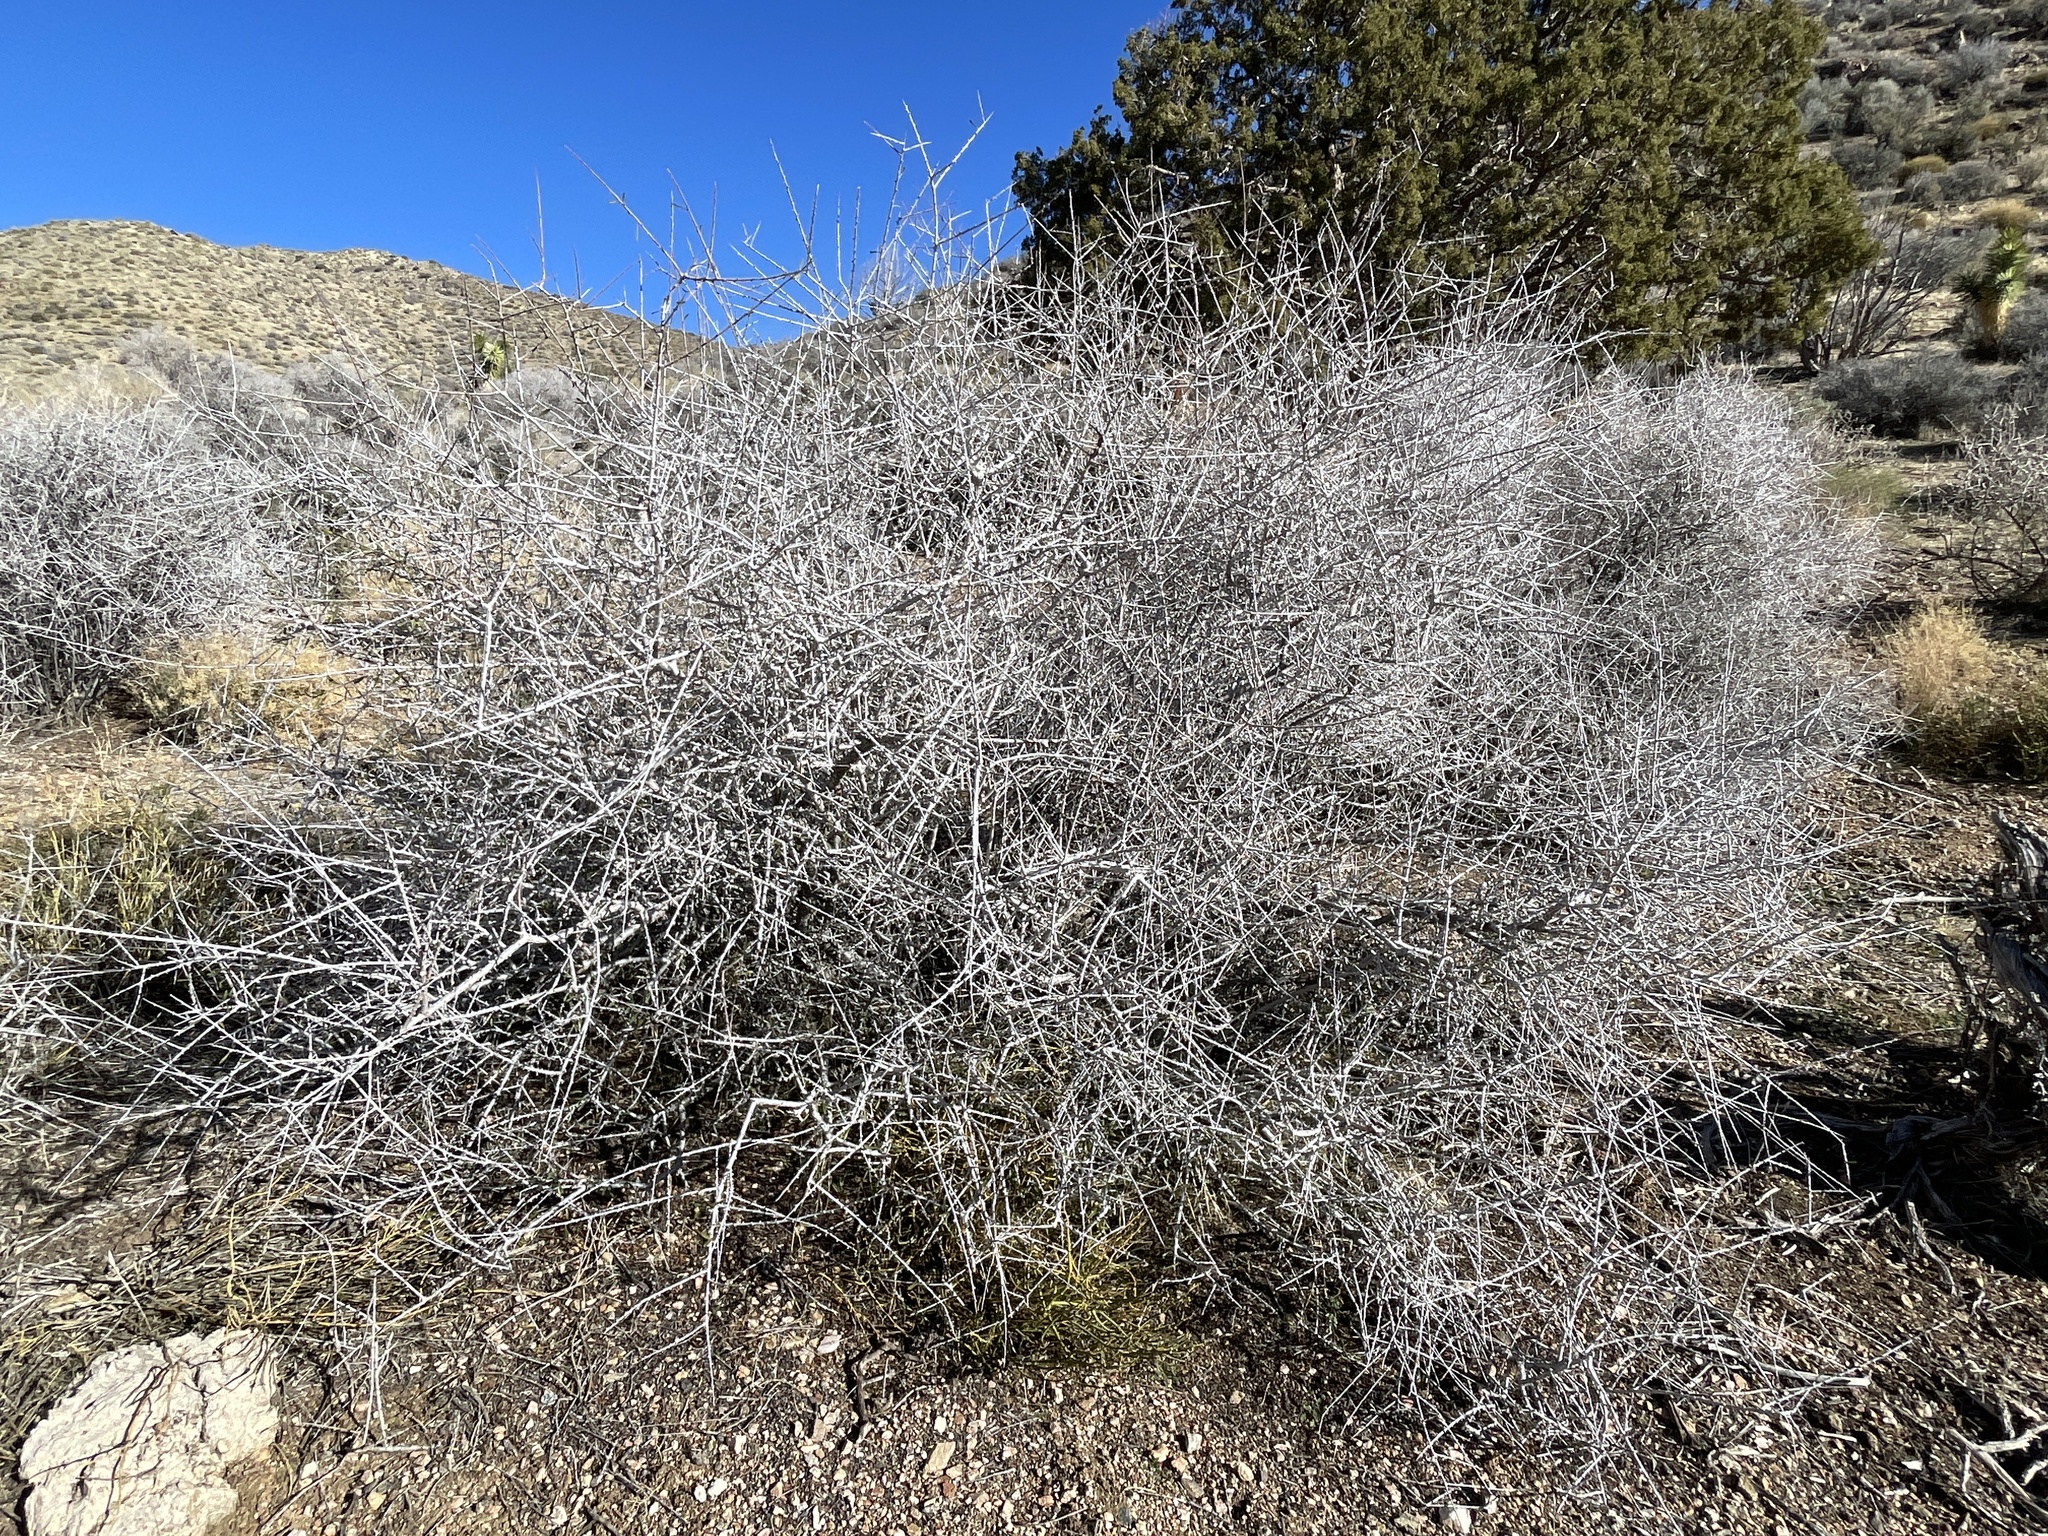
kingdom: Plantae
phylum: Tracheophyta
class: Magnoliopsida
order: Rosales
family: Rosaceae
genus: Prunus
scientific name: Prunus fasciculata
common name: Desert almond
